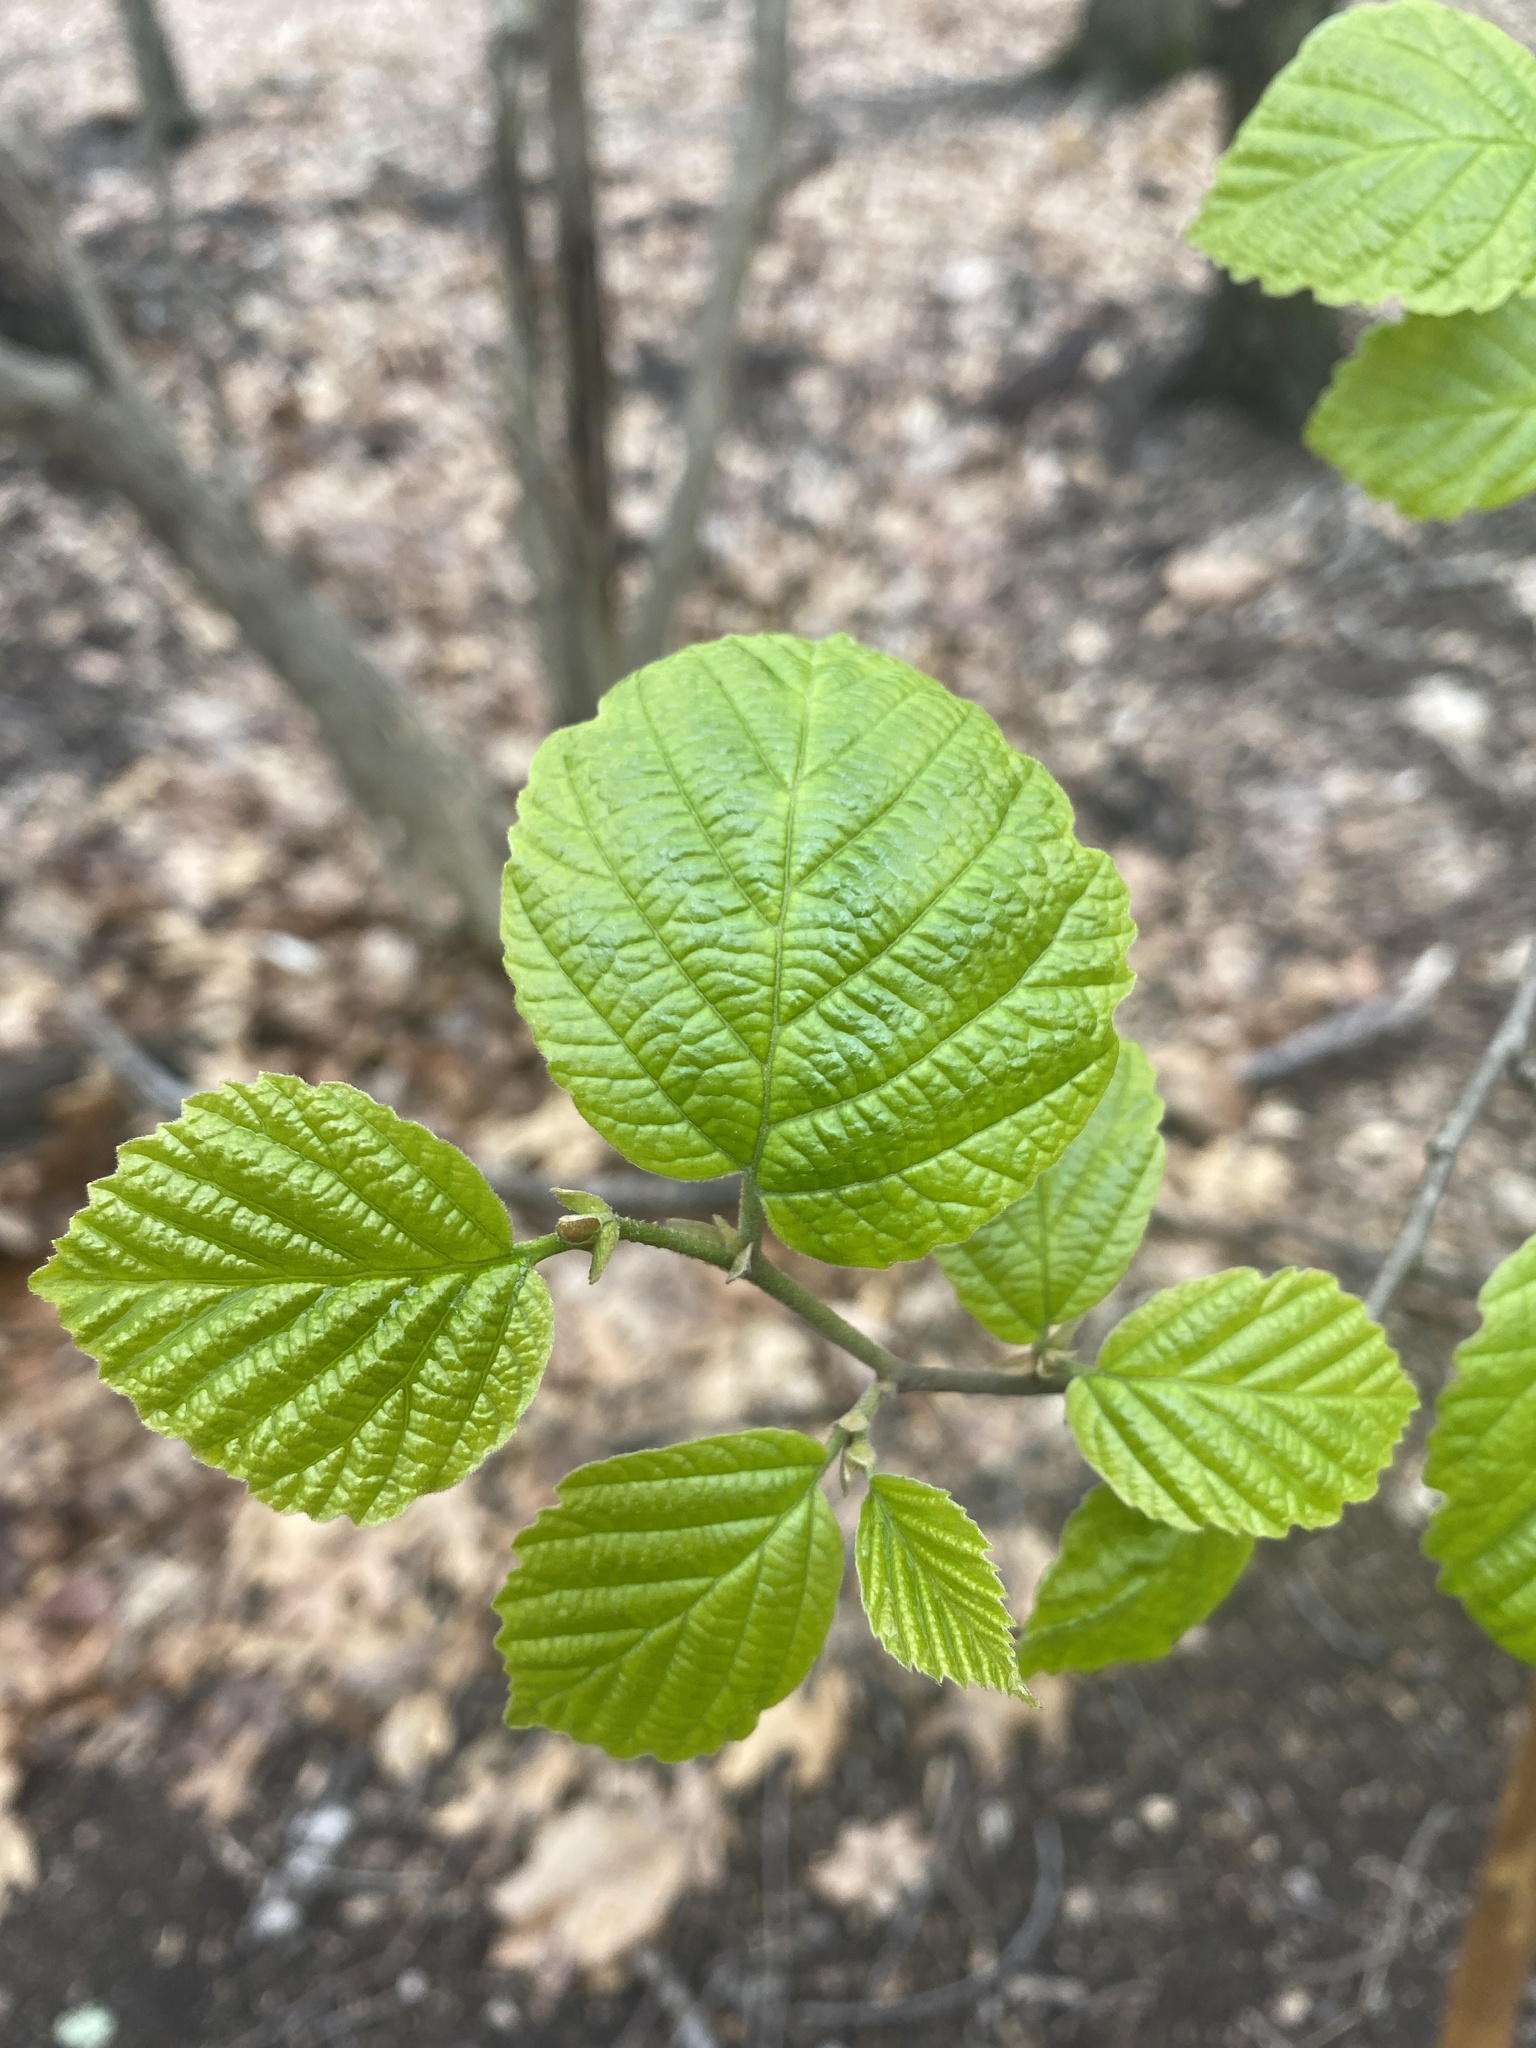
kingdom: Plantae
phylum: Tracheophyta
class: Magnoliopsida
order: Saxifragales
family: Hamamelidaceae
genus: Hamamelis
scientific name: Hamamelis virginiana
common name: Witch-hazel
